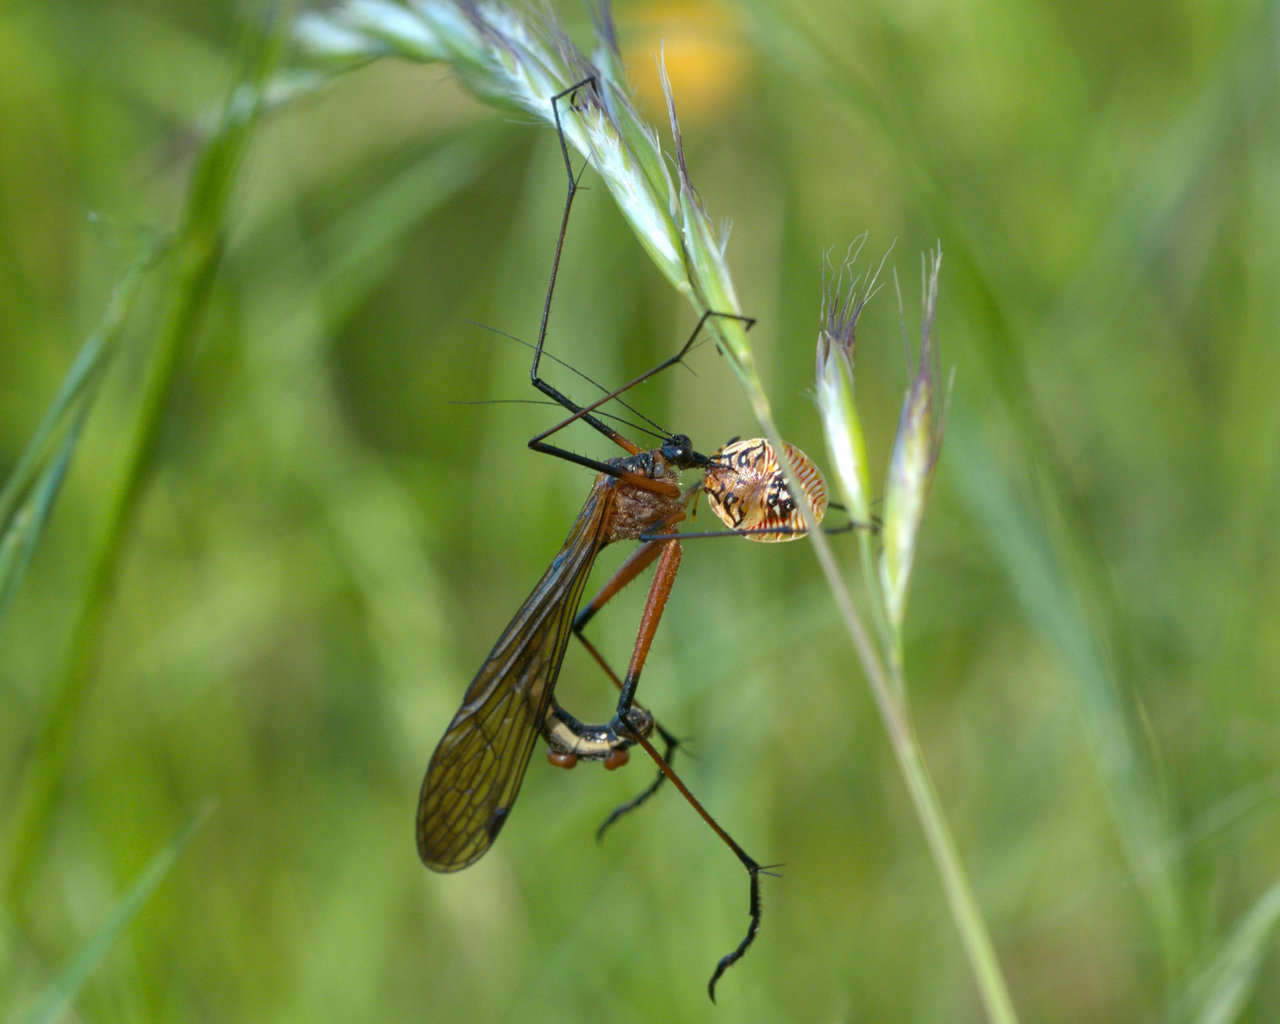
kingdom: Animalia
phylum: Arthropoda
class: Insecta
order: Mecoptera
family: Bittacidae
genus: Harpobittacus
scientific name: Harpobittacus nigriceps
